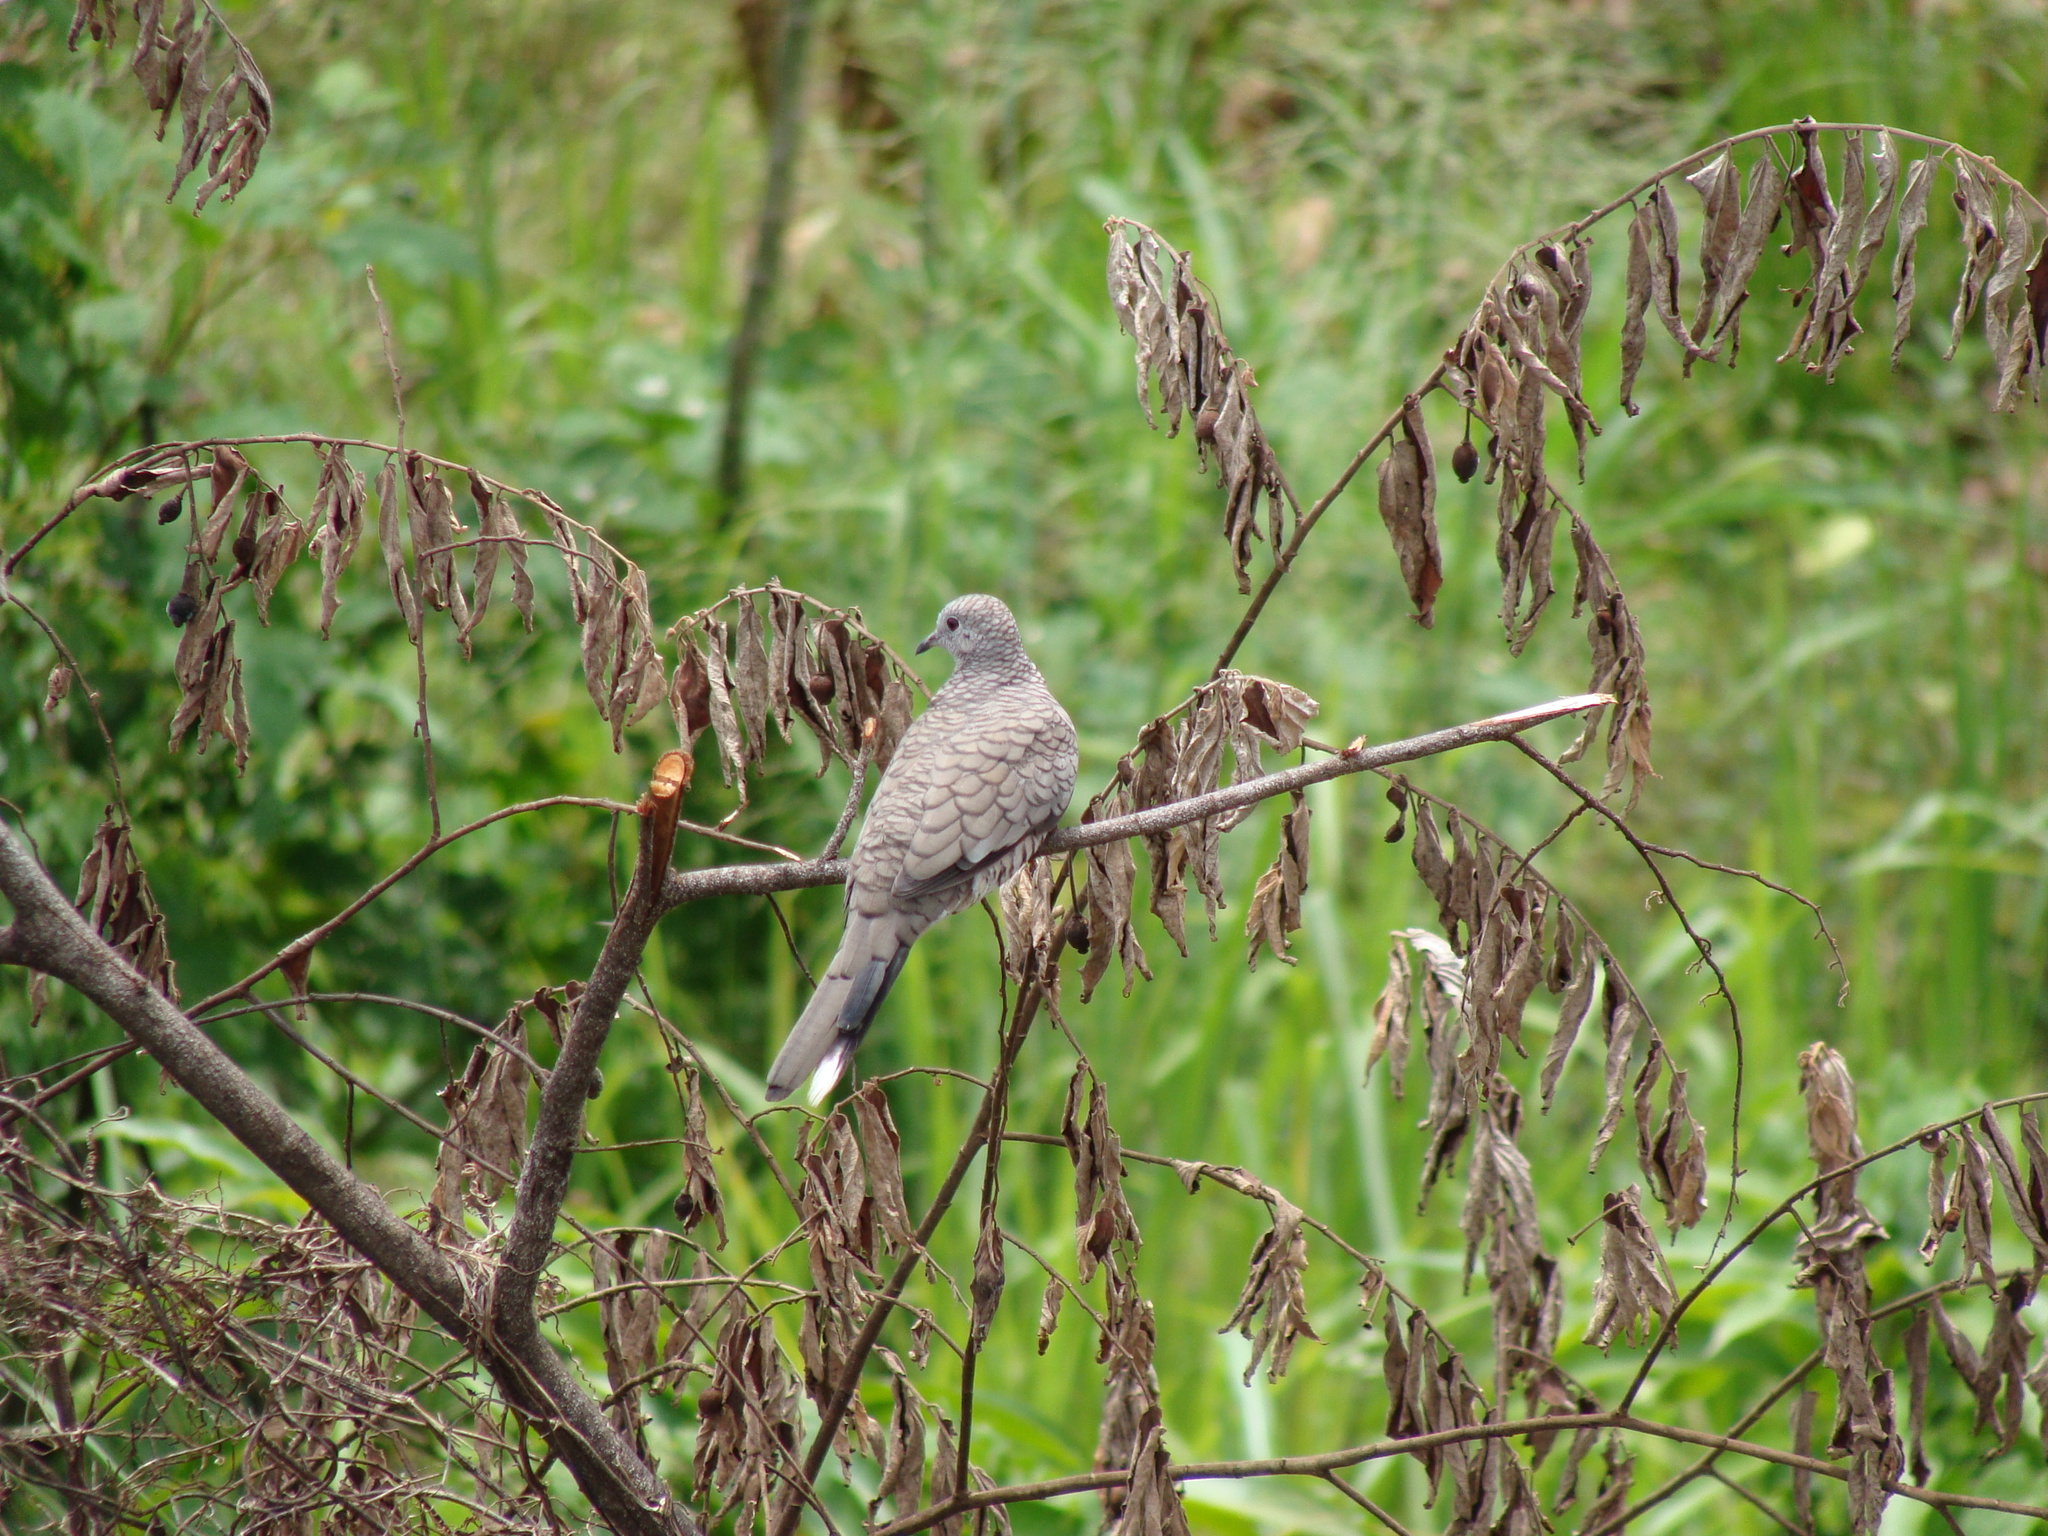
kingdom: Animalia
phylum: Chordata
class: Aves
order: Columbiformes
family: Columbidae
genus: Columbina
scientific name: Columbina inca
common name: Inca dove
